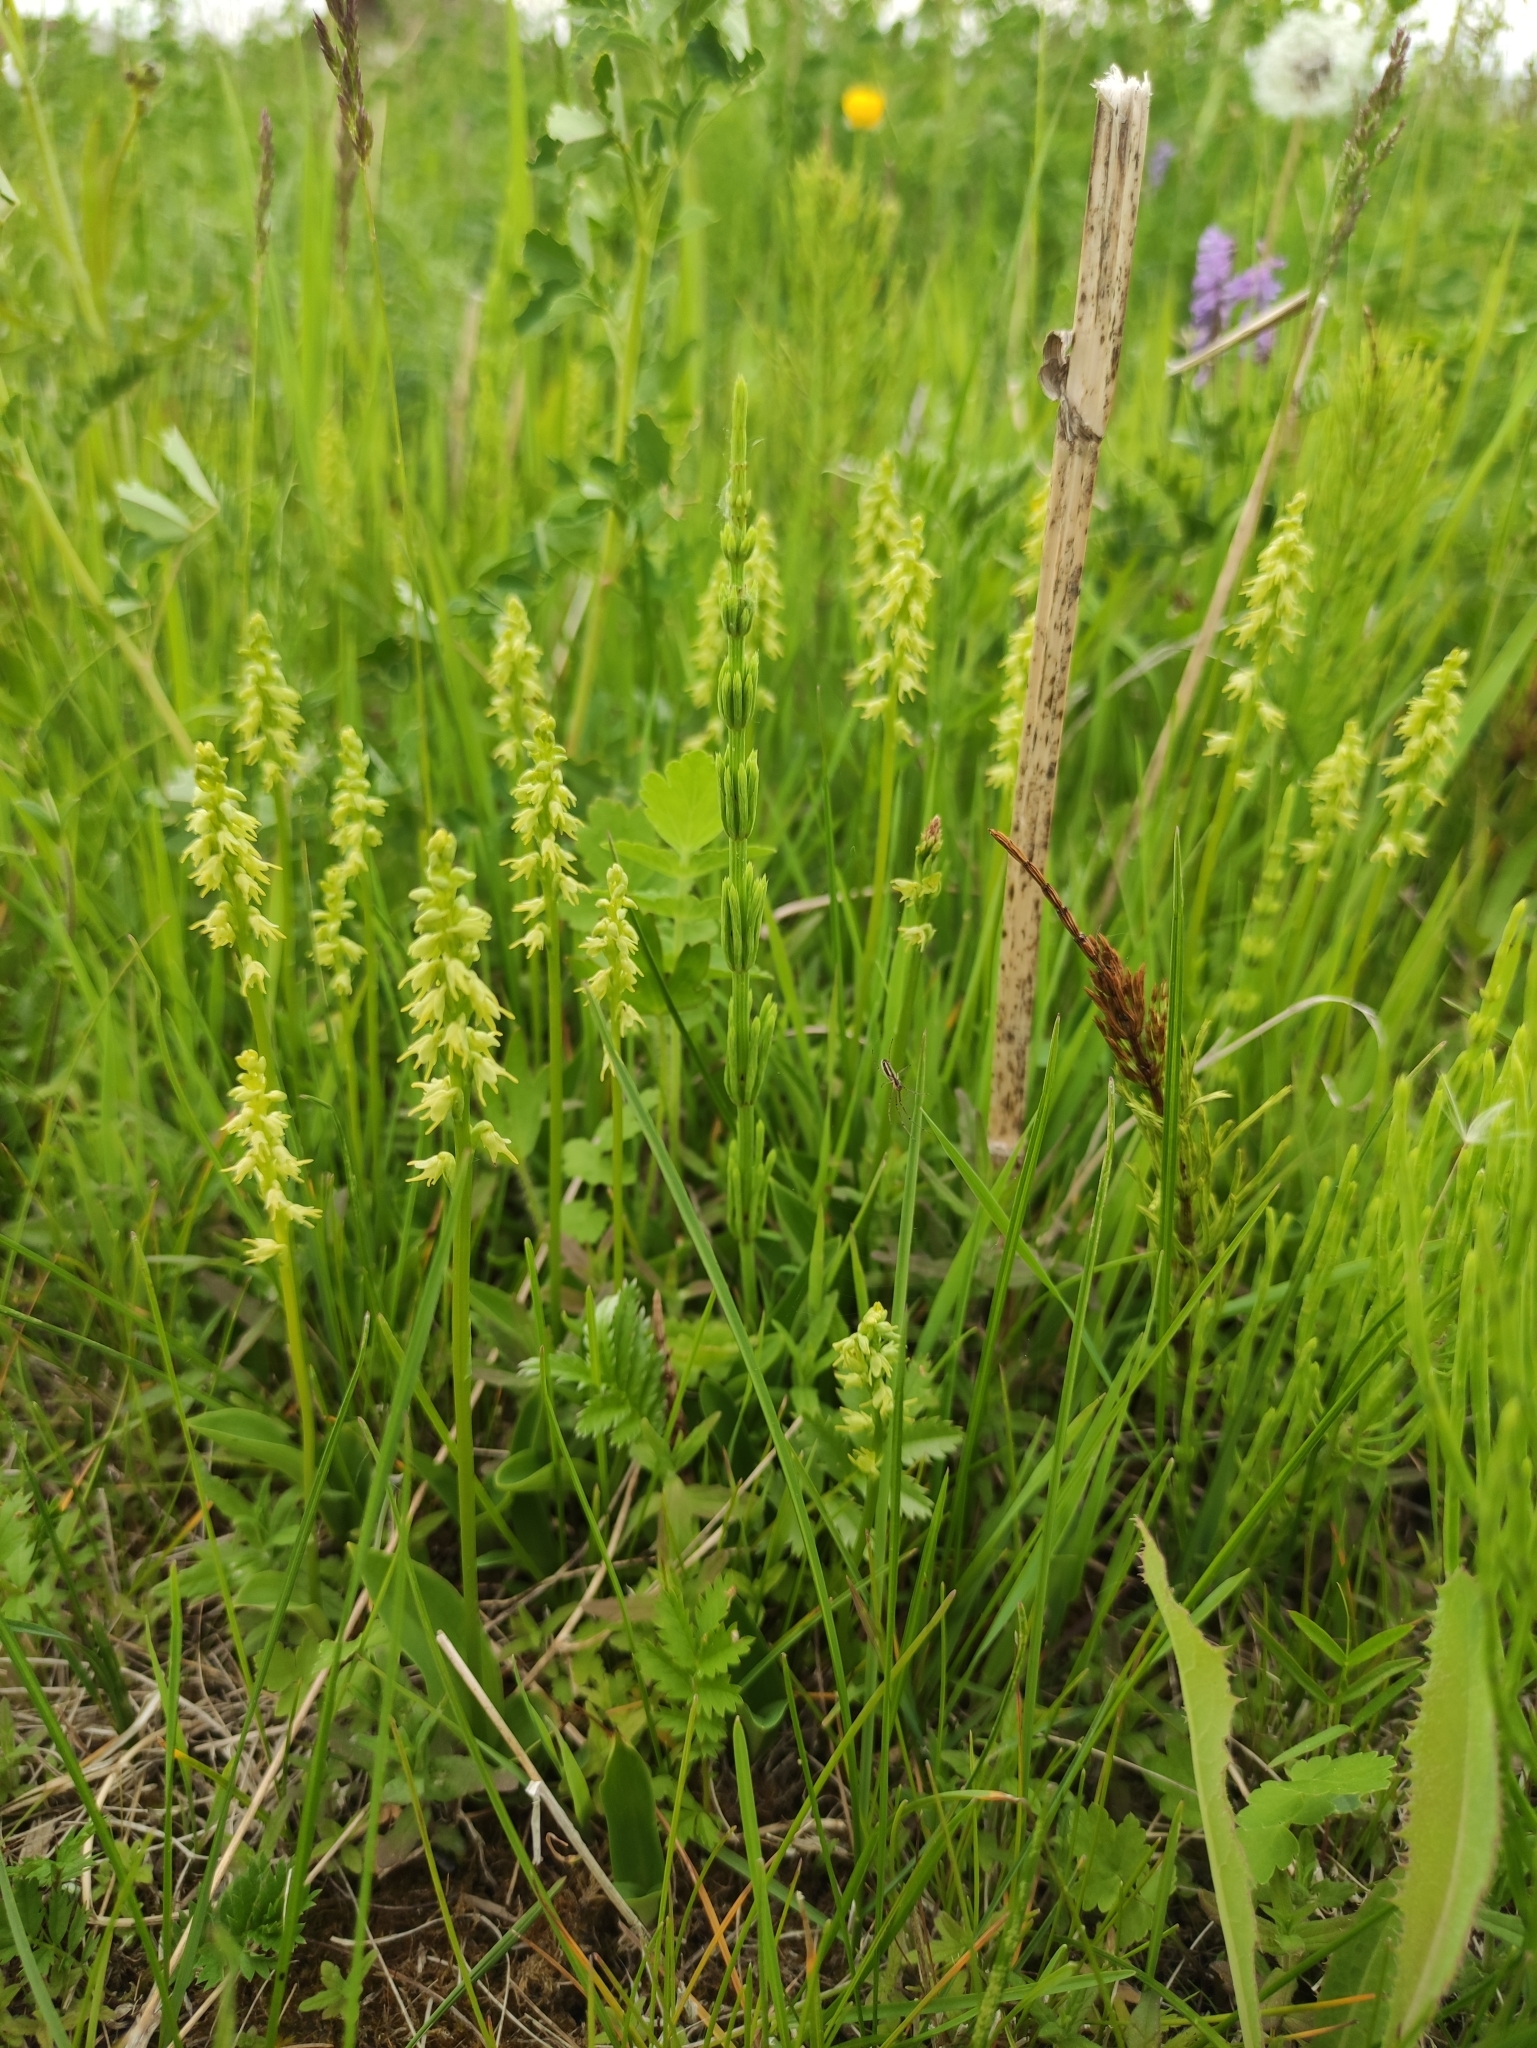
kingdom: Plantae
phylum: Tracheophyta
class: Liliopsida
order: Asparagales
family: Orchidaceae
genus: Herminium
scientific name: Herminium monorchis
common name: Musk orchid
